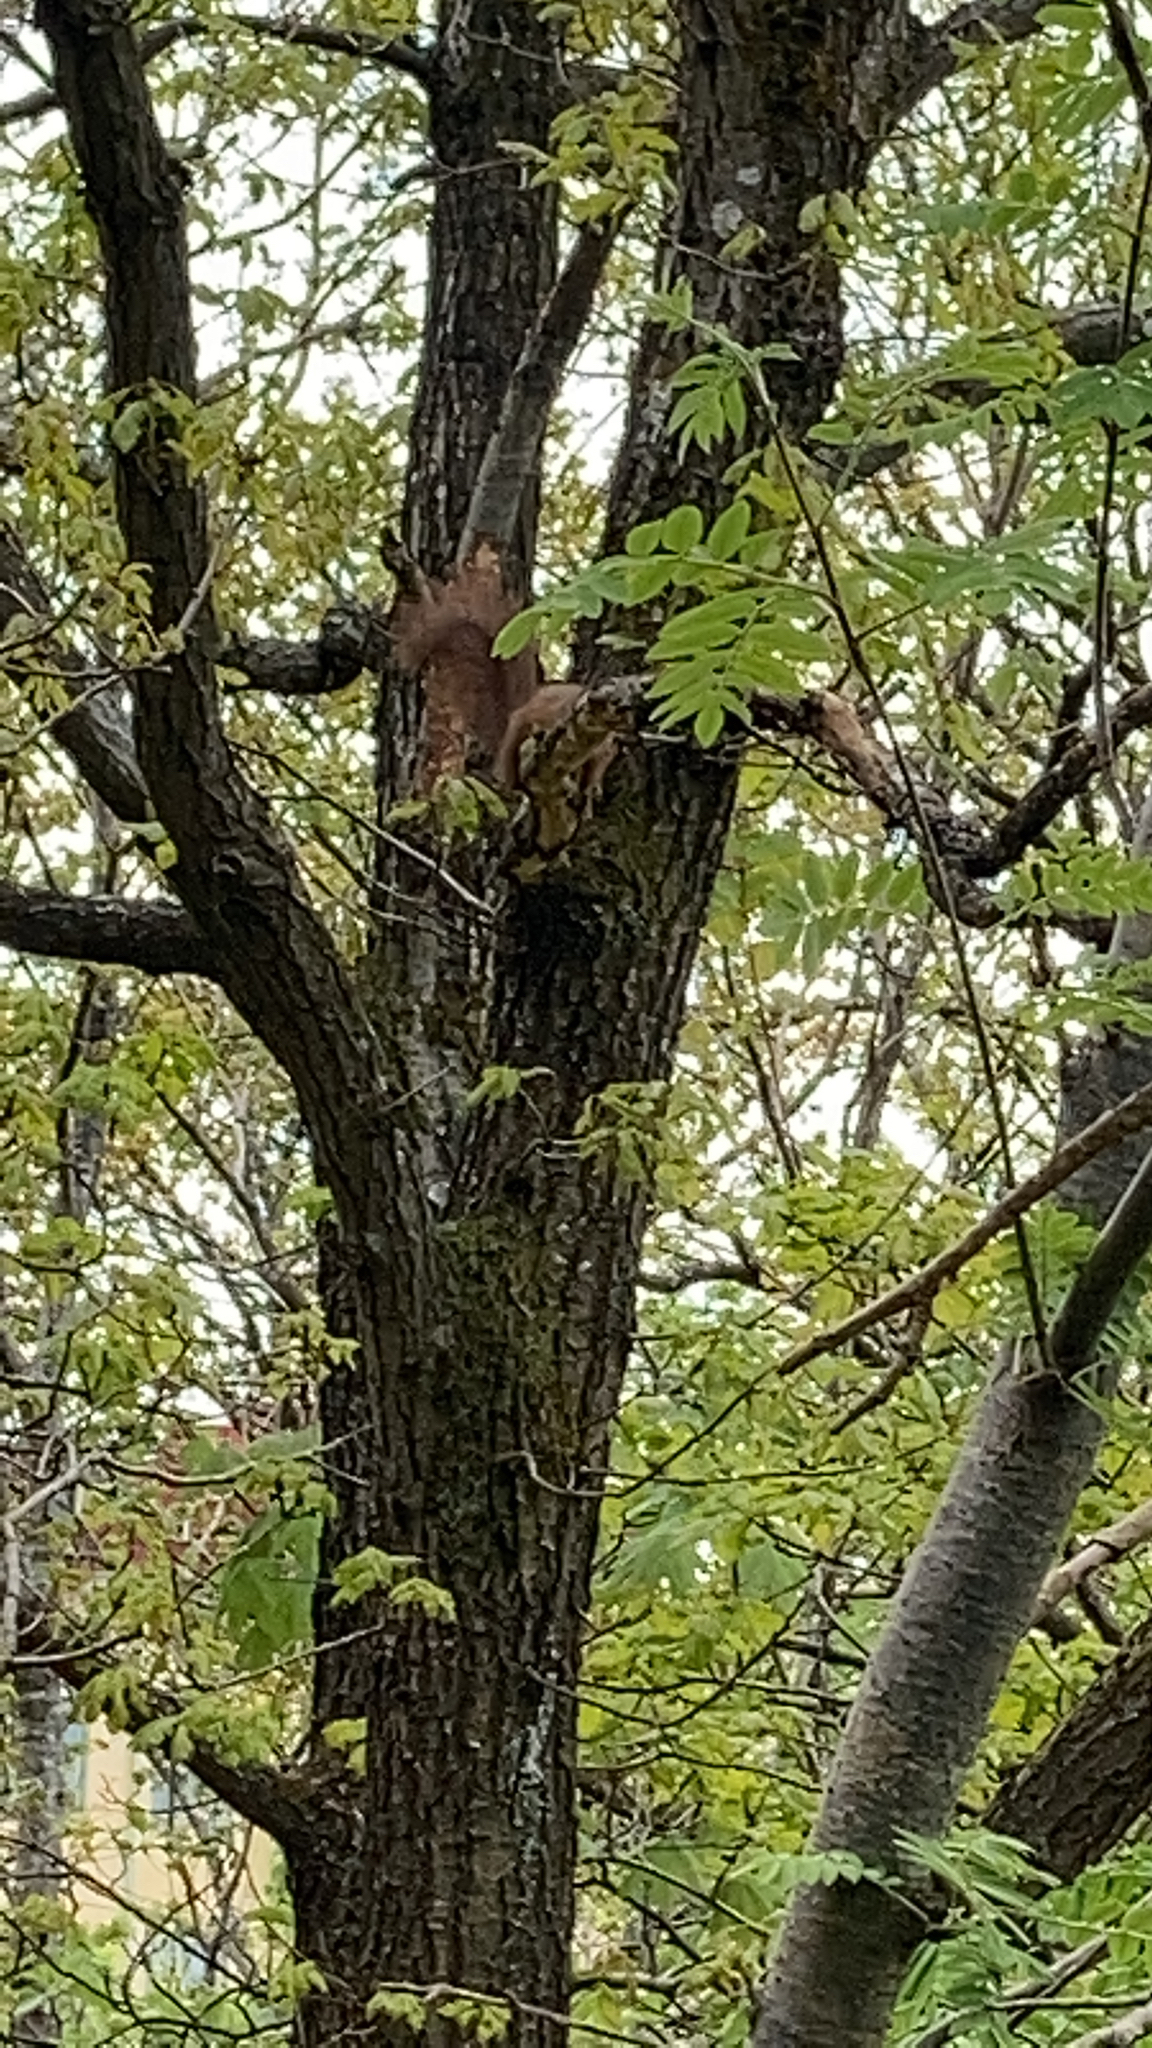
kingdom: Animalia
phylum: Chordata
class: Mammalia
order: Rodentia
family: Sciuridae
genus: Sciurus
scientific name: Sciurus vulgaris
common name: Eurasian red squirrel
